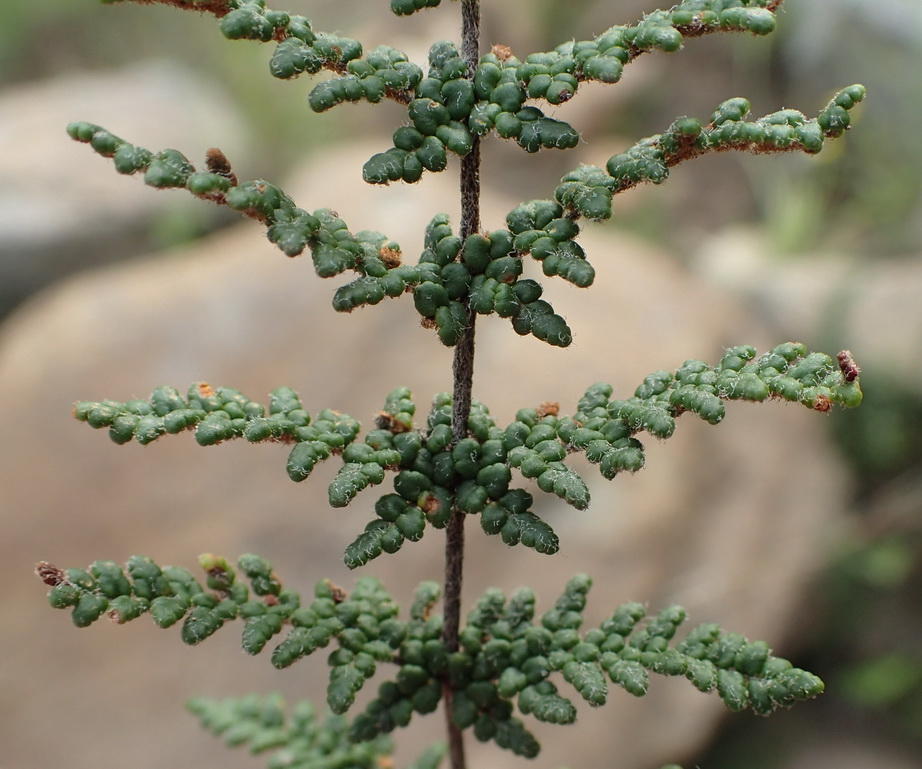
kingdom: Plantae
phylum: Tracheophyta
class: Polypodiopsida
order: Polypodiales
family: Pteridaceae
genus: Cheilanthes
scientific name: Cheilanthes induta
